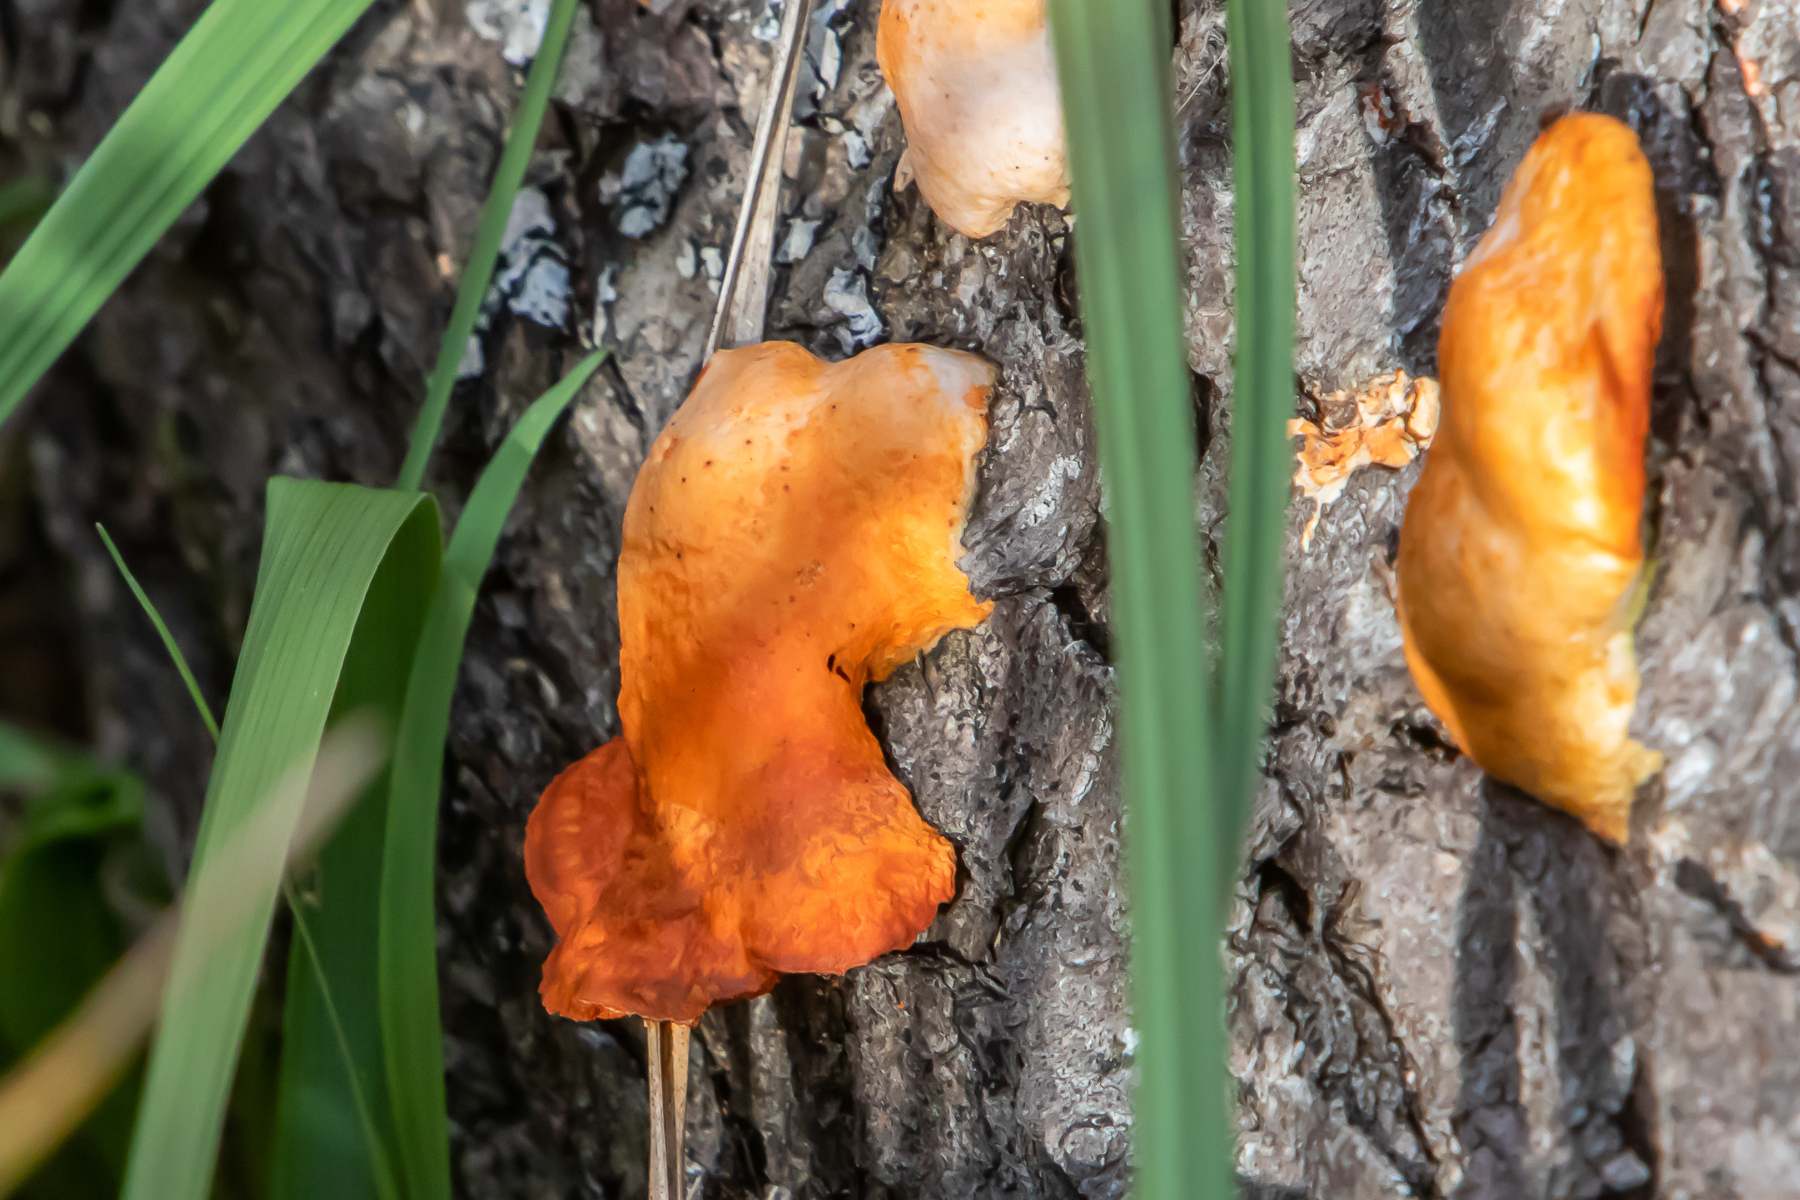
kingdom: Fungi
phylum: Basidiomycota
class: Agaricomycetes
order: Polyporales
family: Polyporaceae
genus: Trametes
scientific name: Trametes cinnabarina
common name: Northern cinnabar polypore
